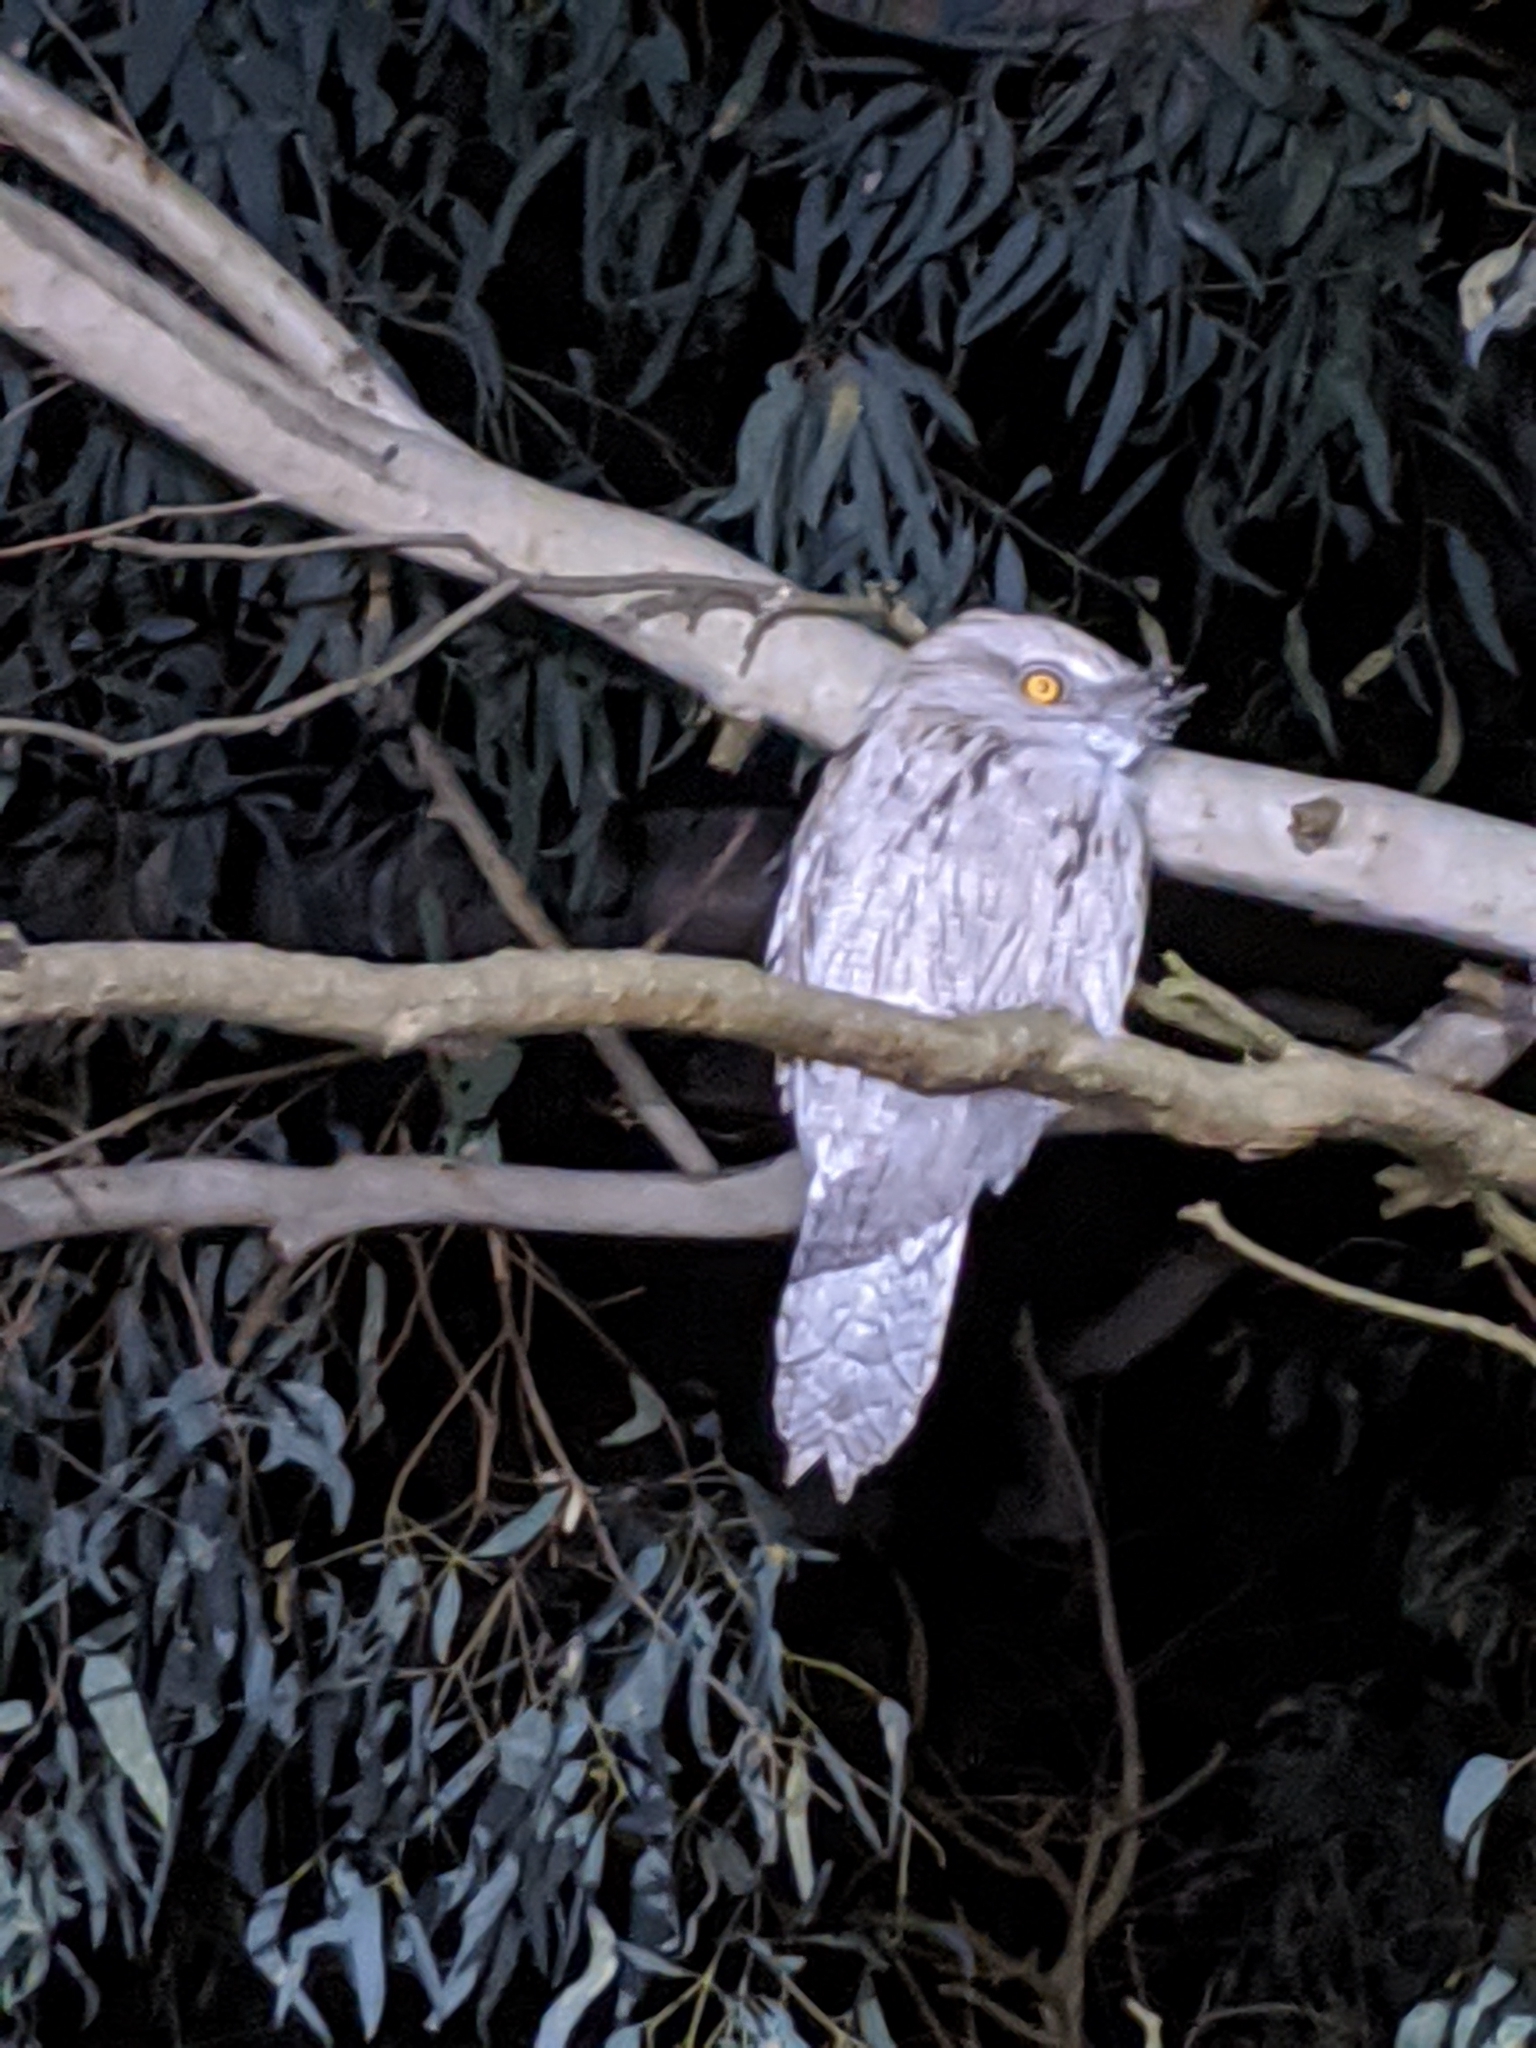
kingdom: Animalia
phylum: Chordata
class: Aves
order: Caprimulgiformes
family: Podargidae
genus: Podargus
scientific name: Podargus strigoides
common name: Tawny frogmouth
